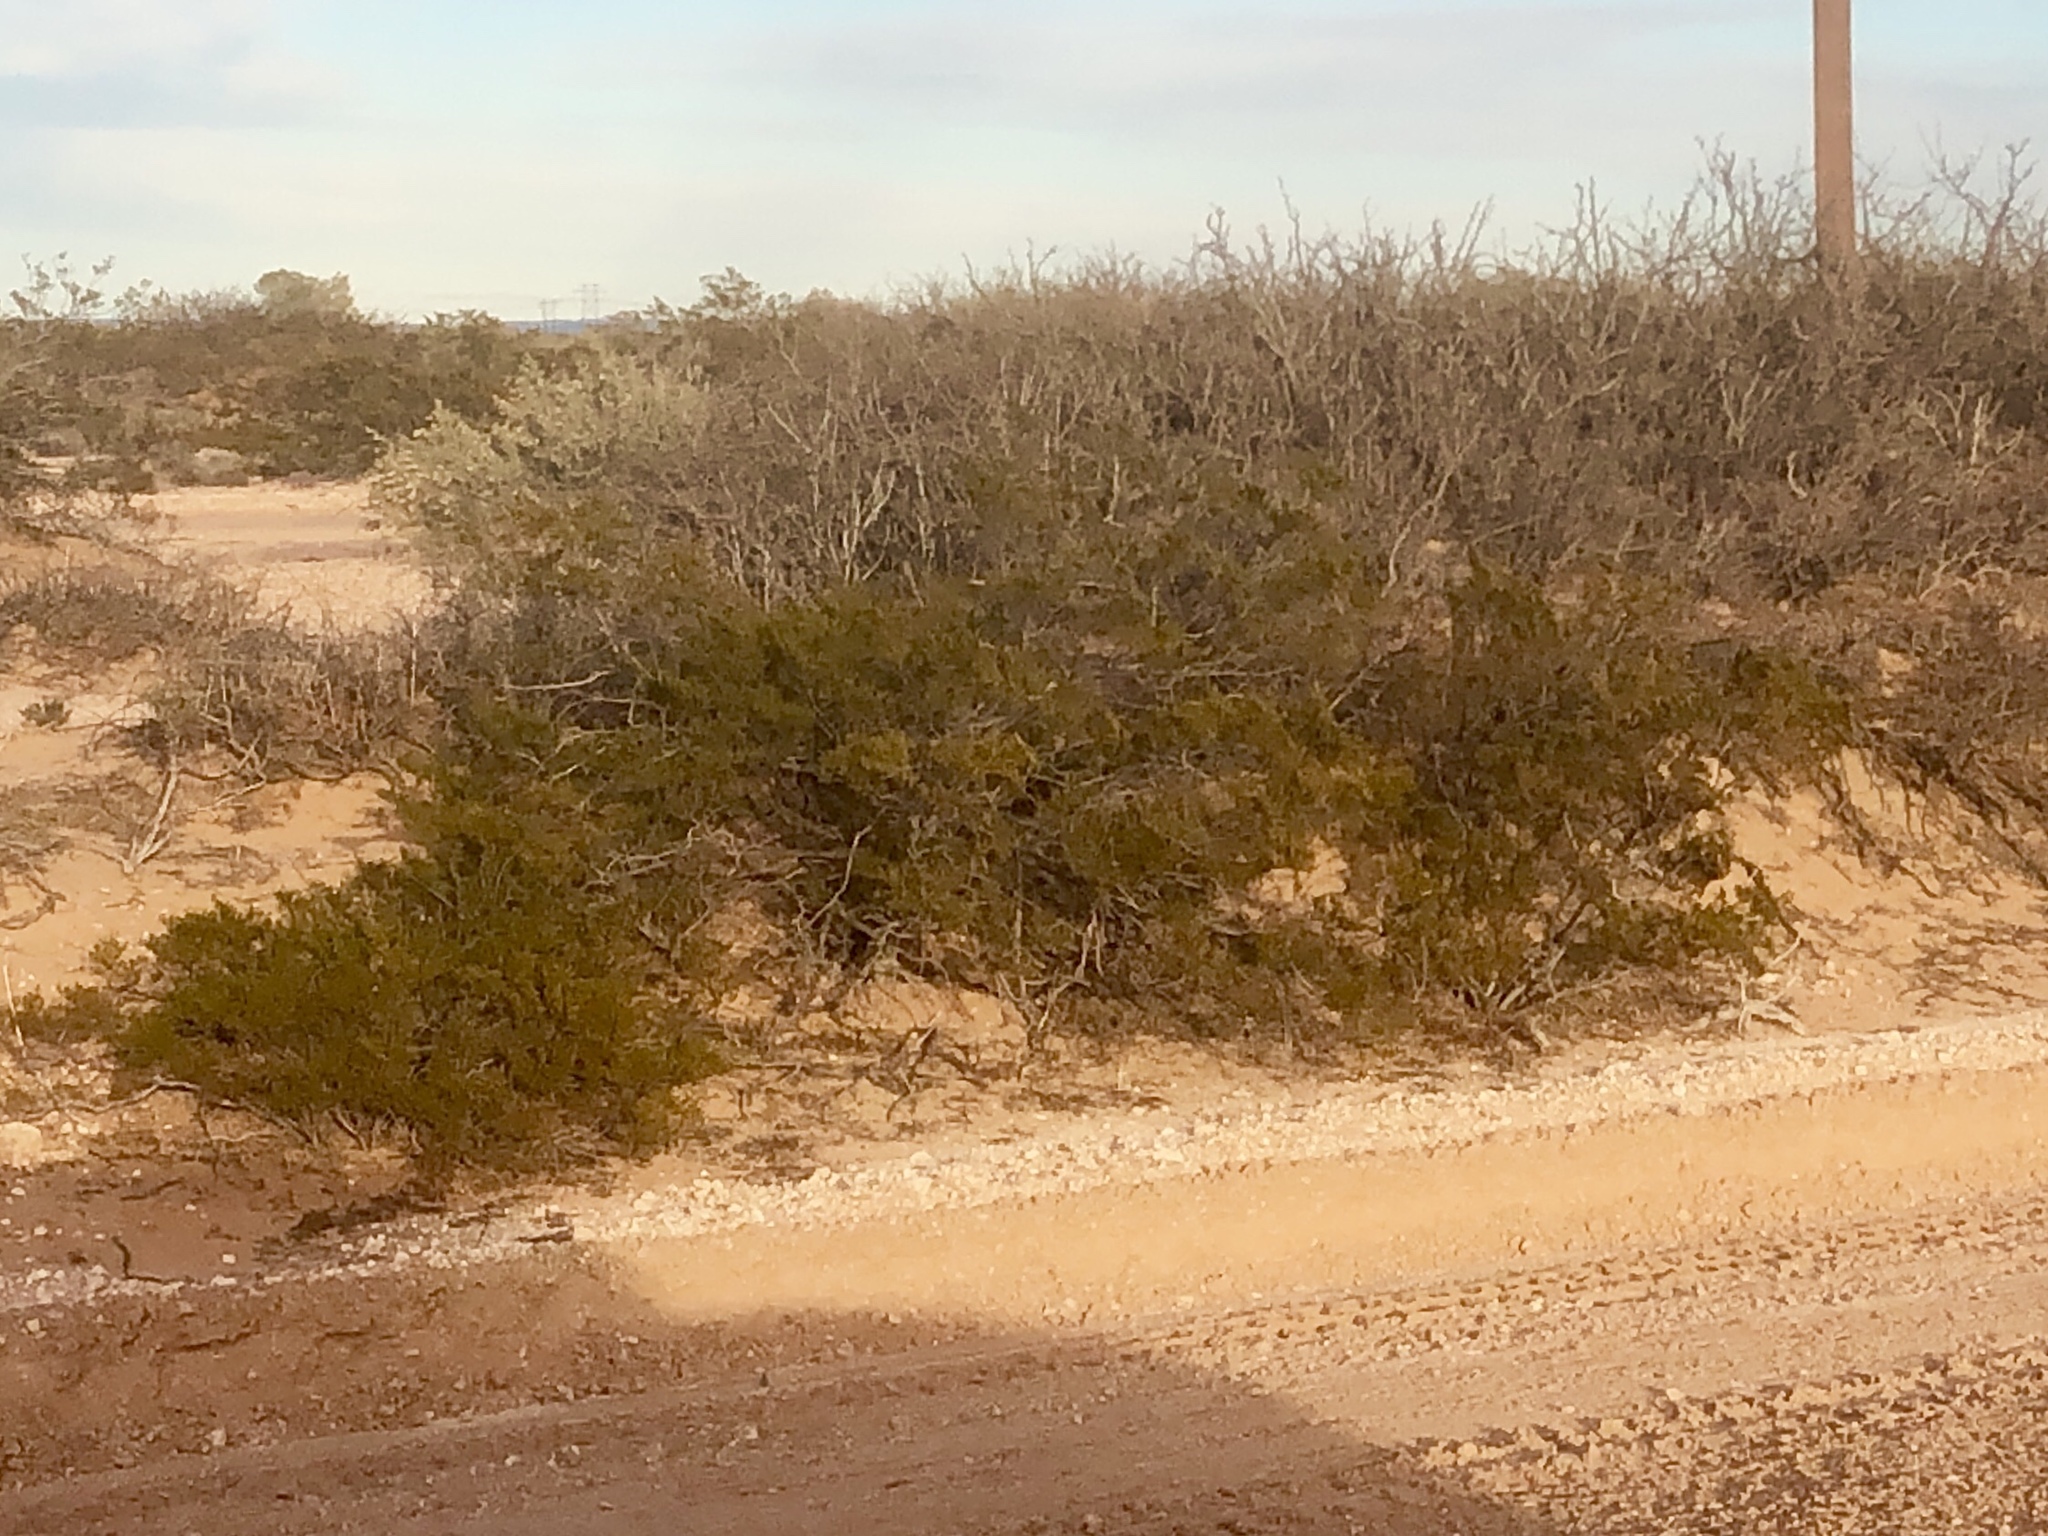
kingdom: Plantae
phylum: Tracheophyta
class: Magnoliopsida
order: Zygophyllales
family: Zygophyllaceae
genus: Larrea
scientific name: Larrea tridentata
